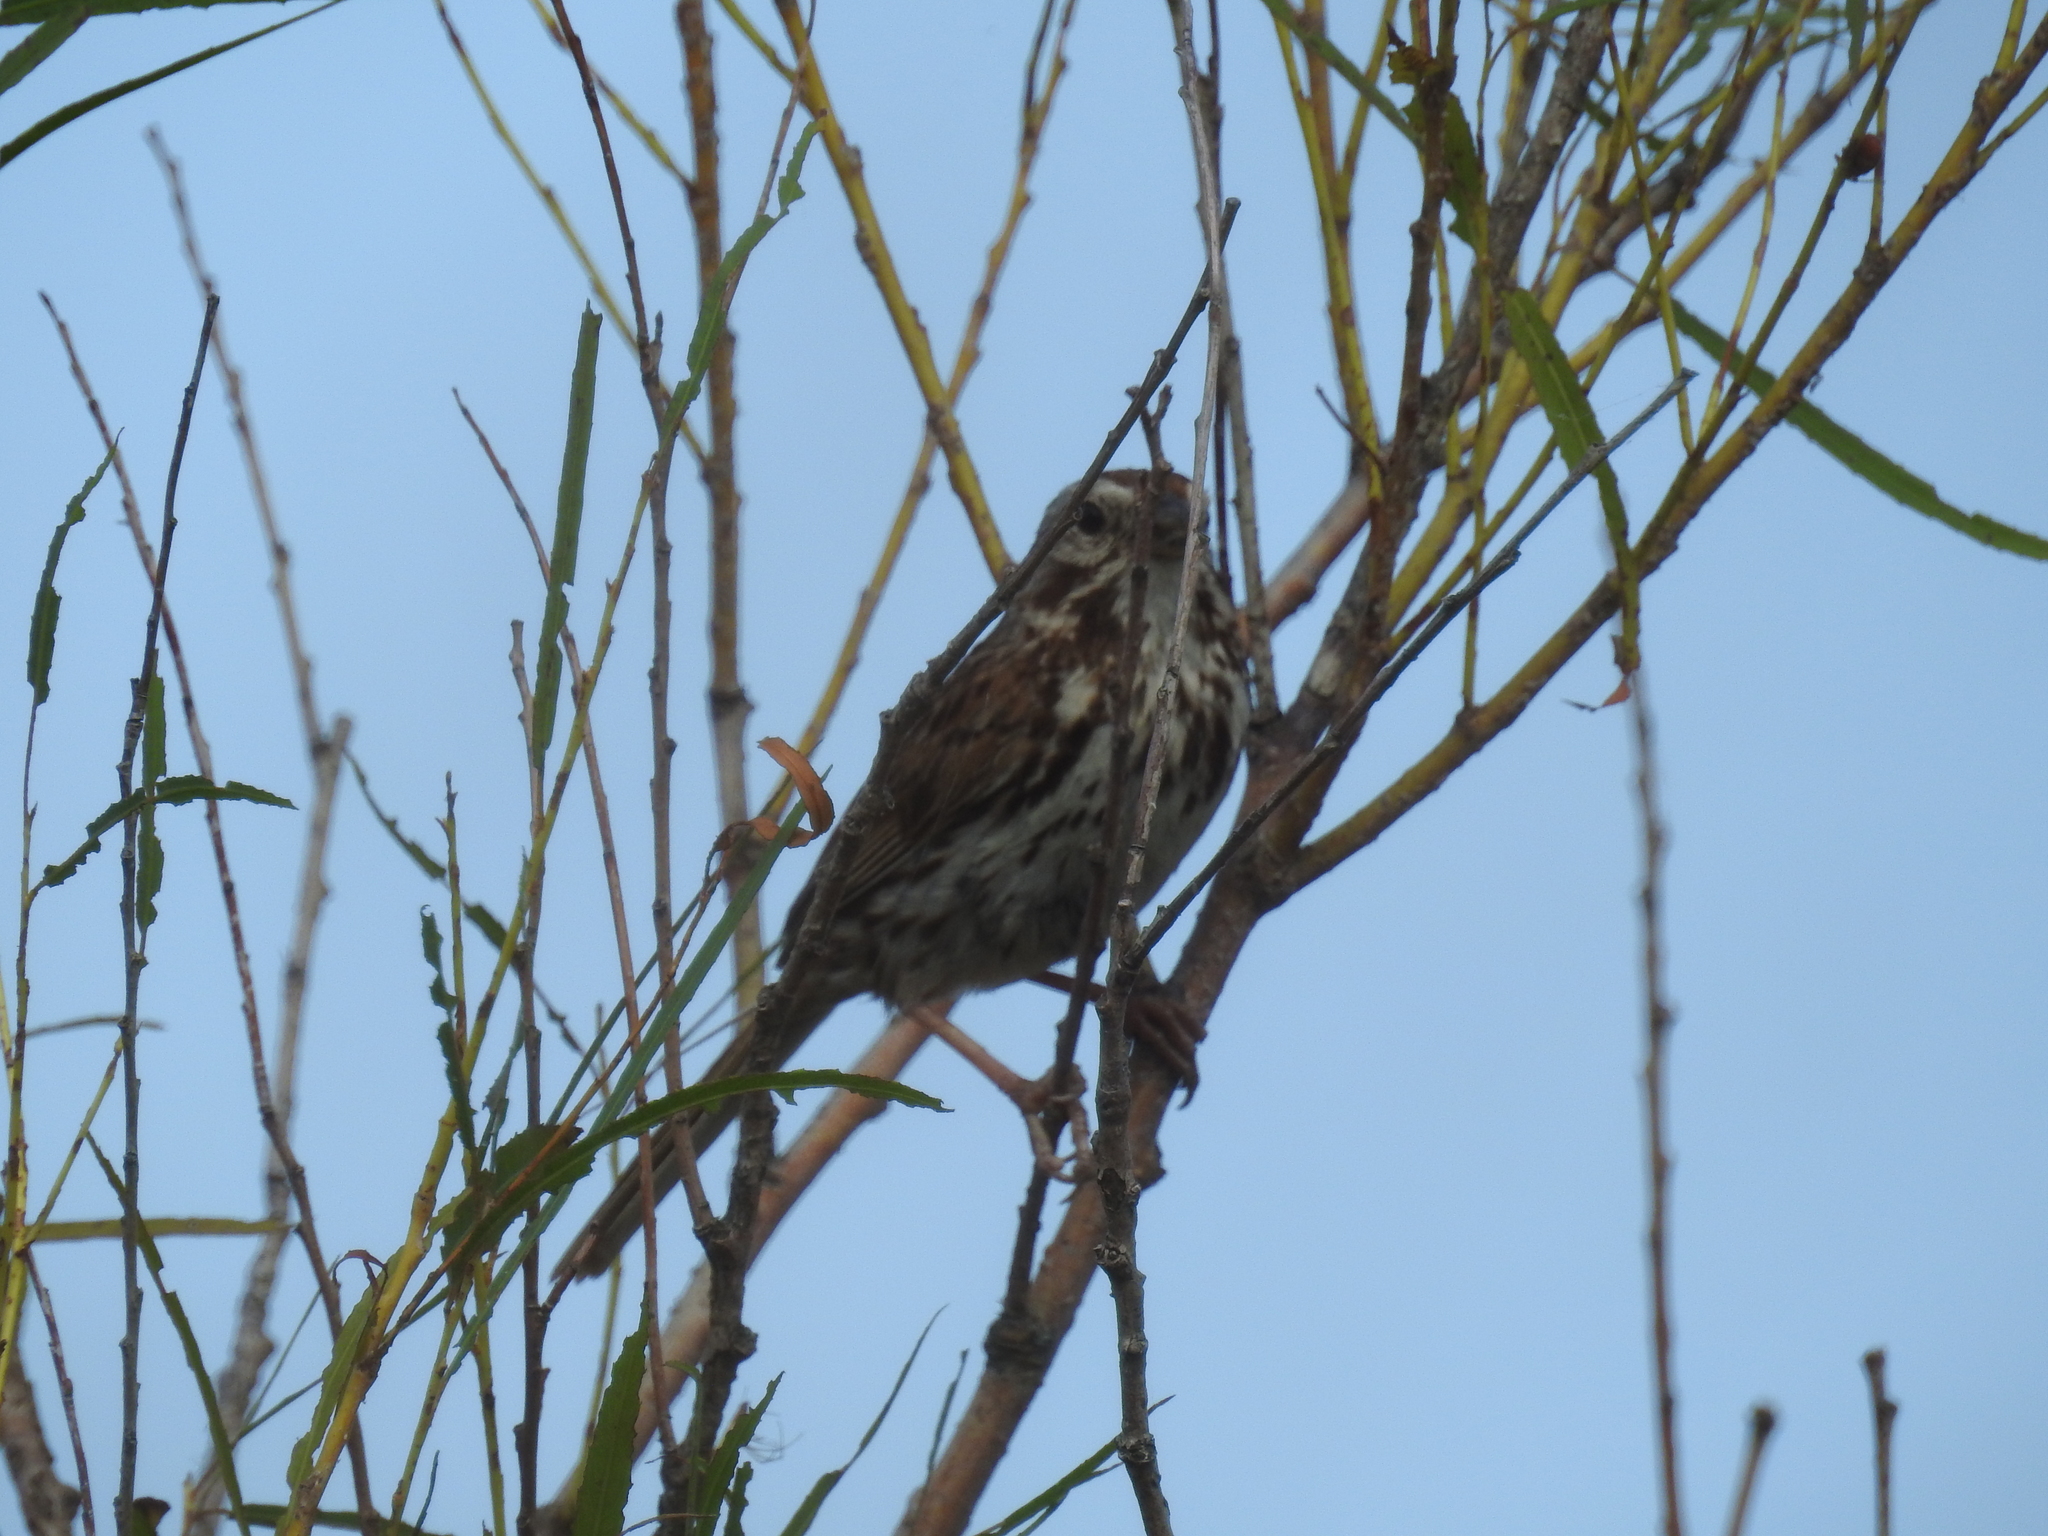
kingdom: Animalia
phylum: Chordata
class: Aves
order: Passeriformes
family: Passerellidae
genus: Melospiza
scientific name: Melospiza melodia
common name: Song sparrow
